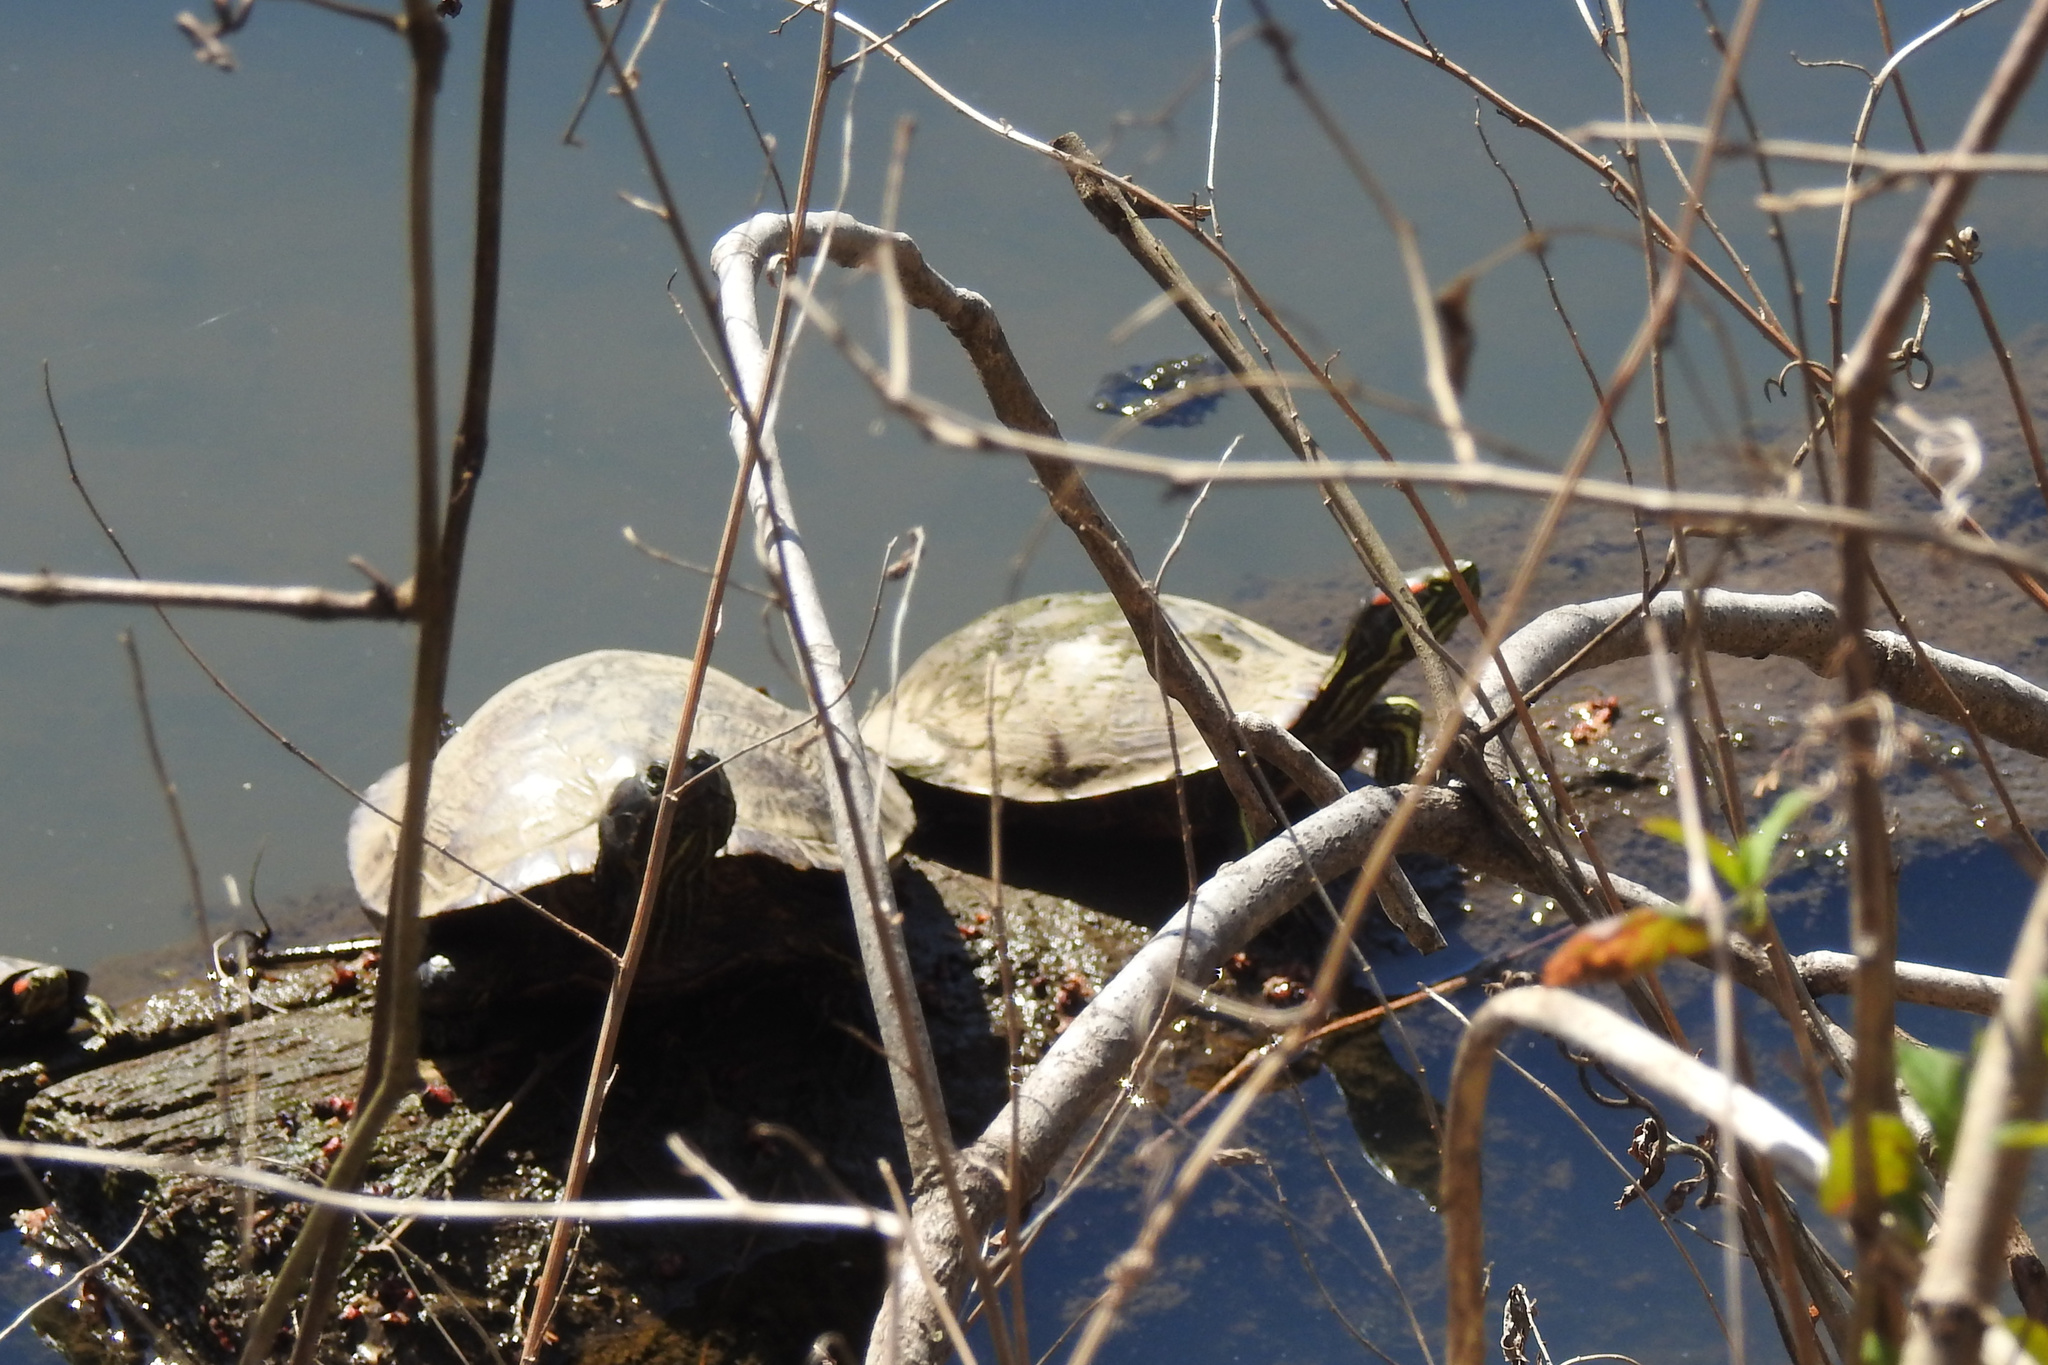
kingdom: Animalia
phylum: Chordata
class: Testudines
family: Emydidae
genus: Trachemys
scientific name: Trachemys scripta
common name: Slider
